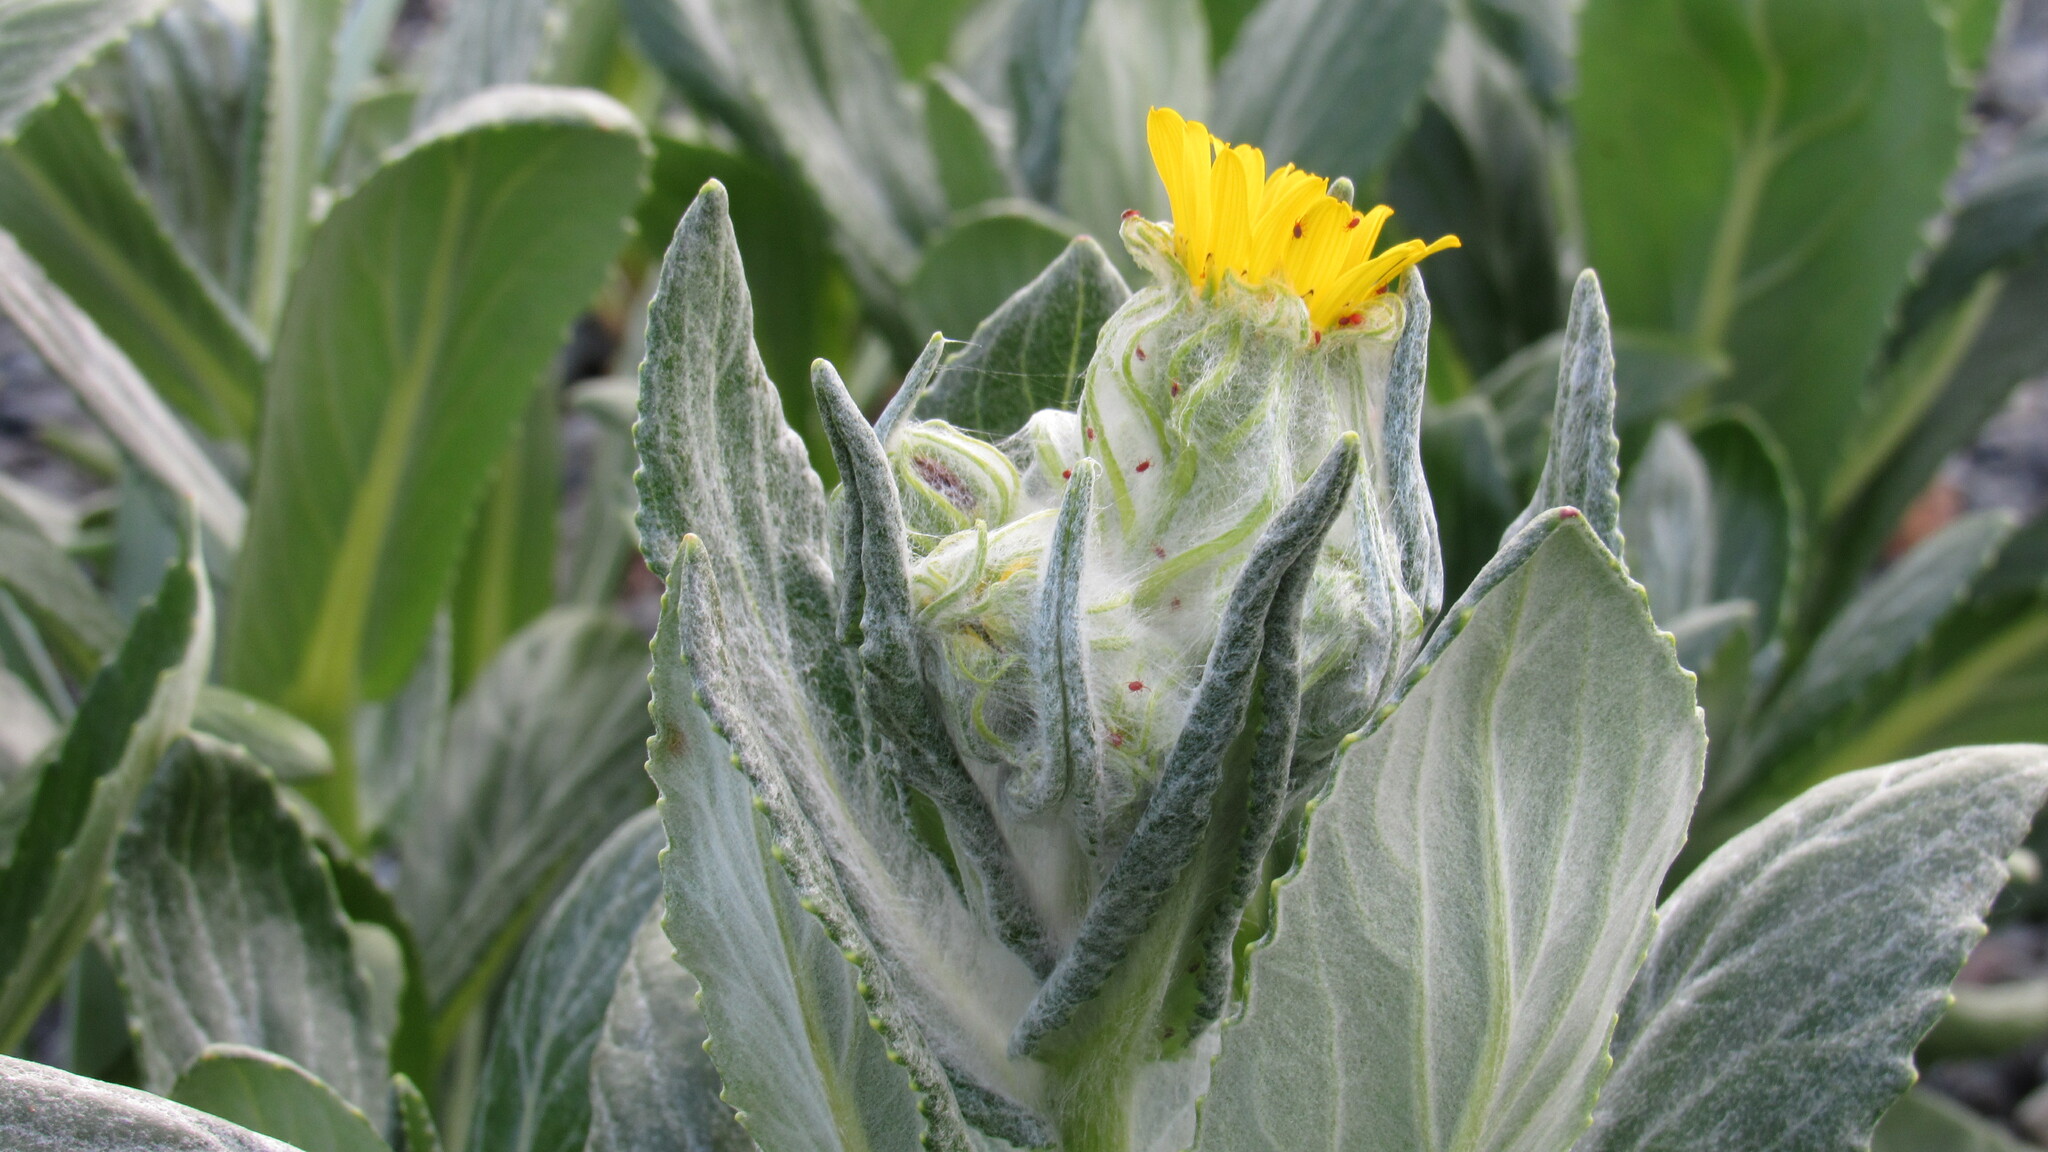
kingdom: Plantae
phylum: Tracheophyta
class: Magnoliopsida
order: Asterales
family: Asteraceae
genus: Jacobaea
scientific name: Jacobaea pseudoarnica
